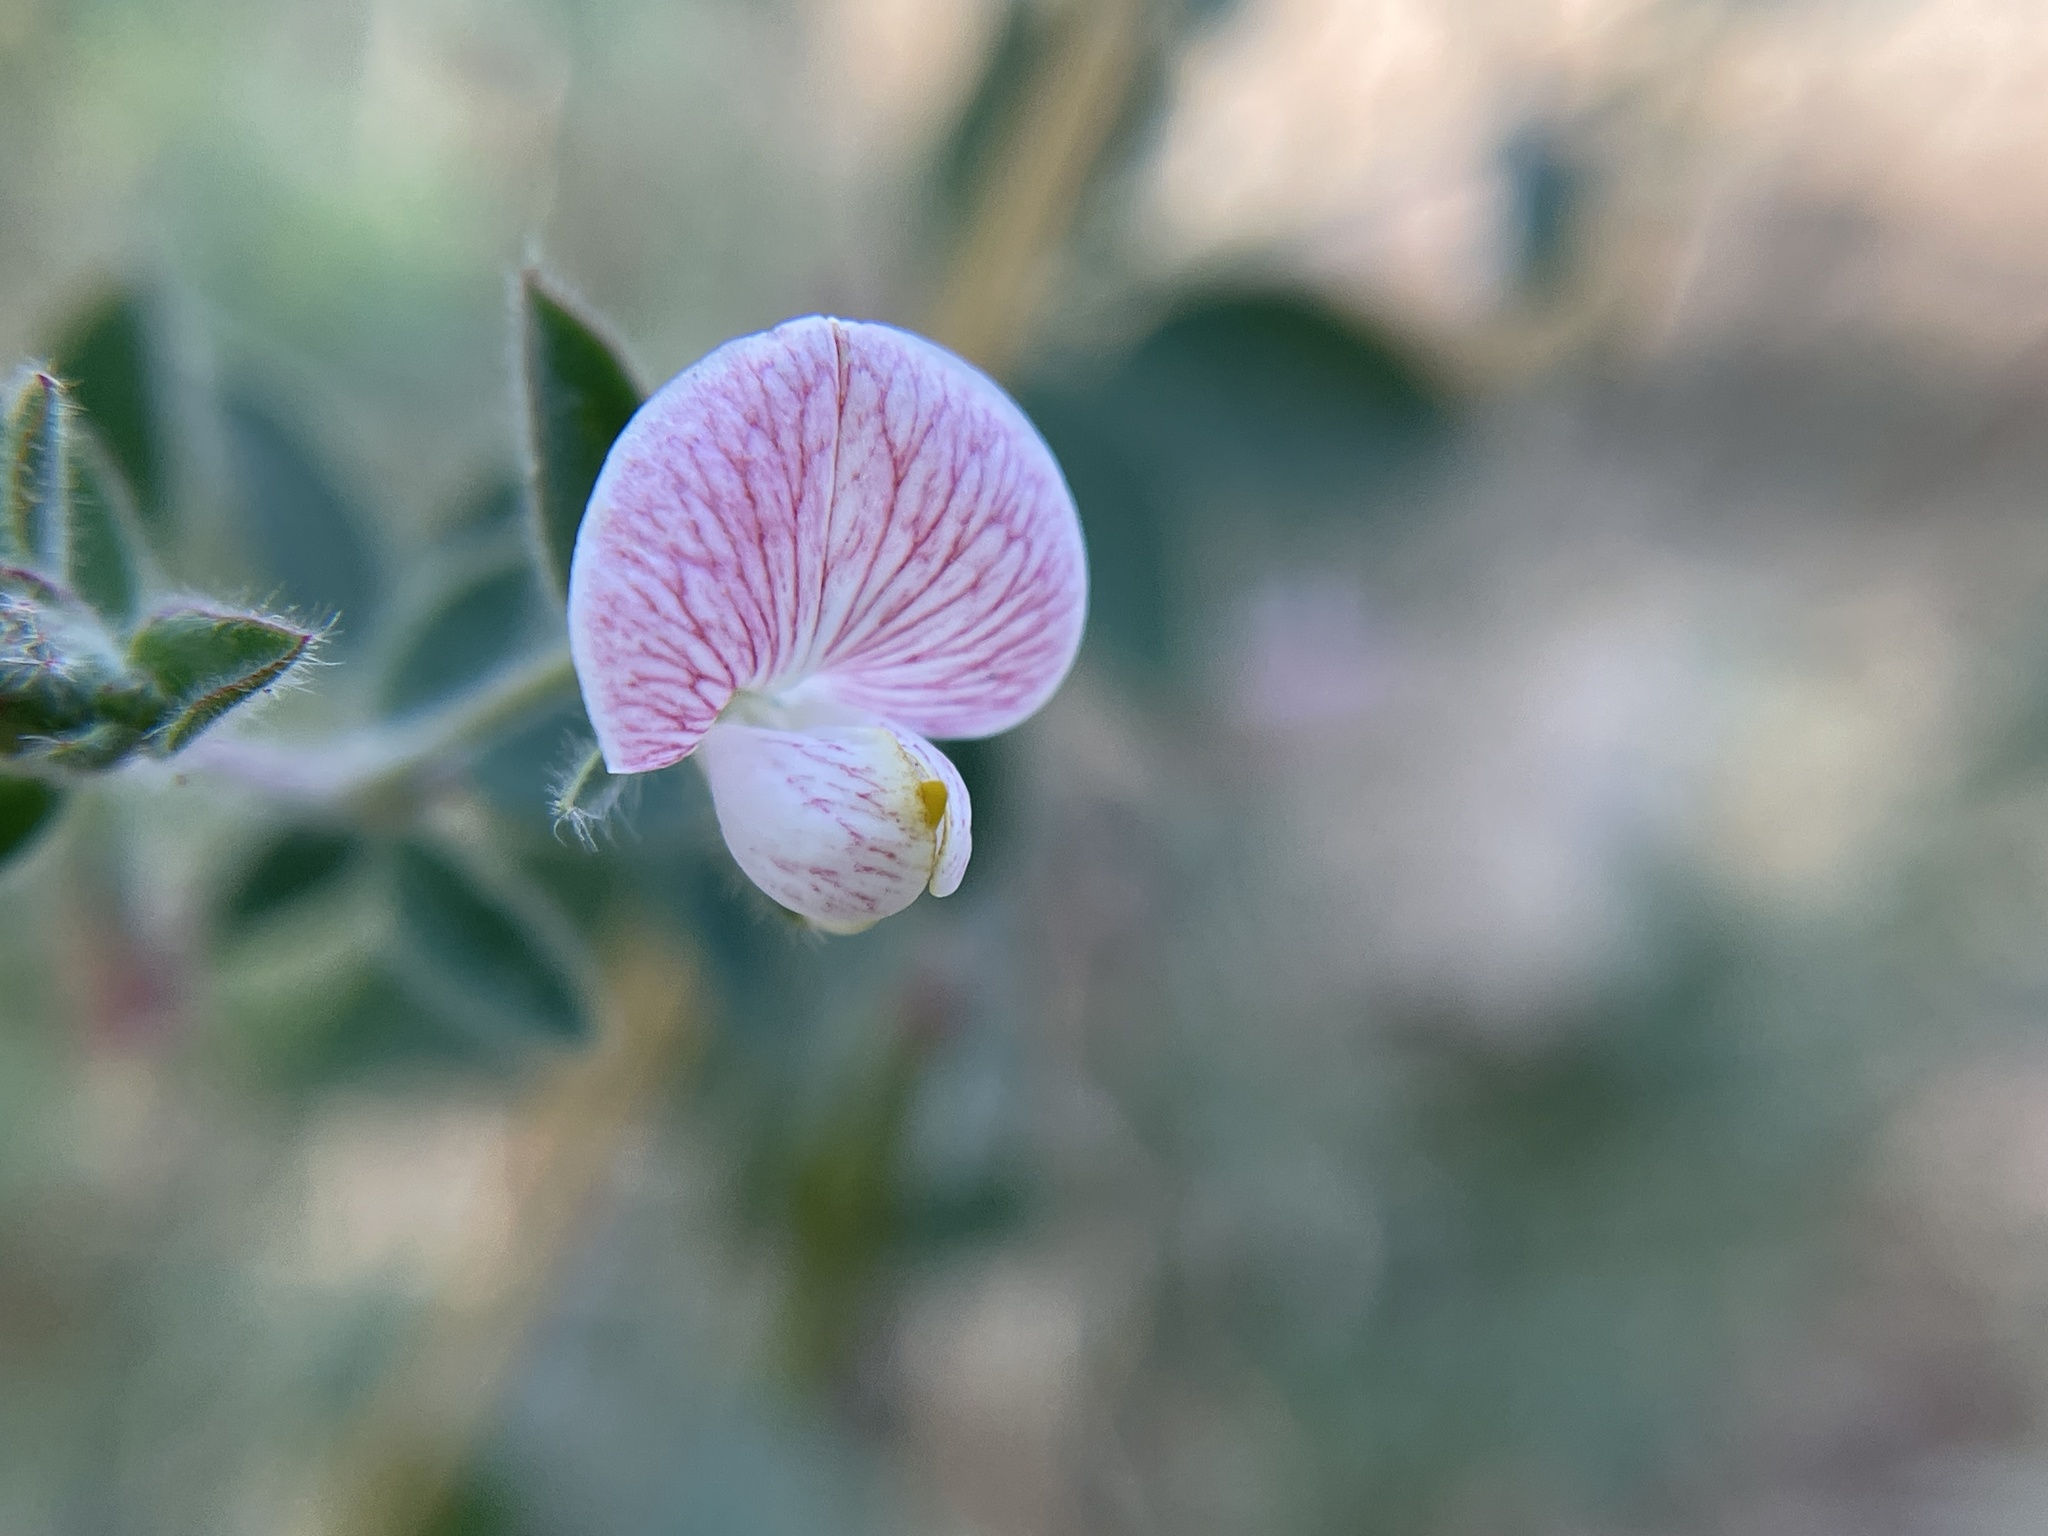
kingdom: Plantae
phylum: Tracheophyta
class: Magnoliopsida
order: Fabales
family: Fabaceae
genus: Acmispon
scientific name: Acmispon americanus
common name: American bird's-foot trefoil
